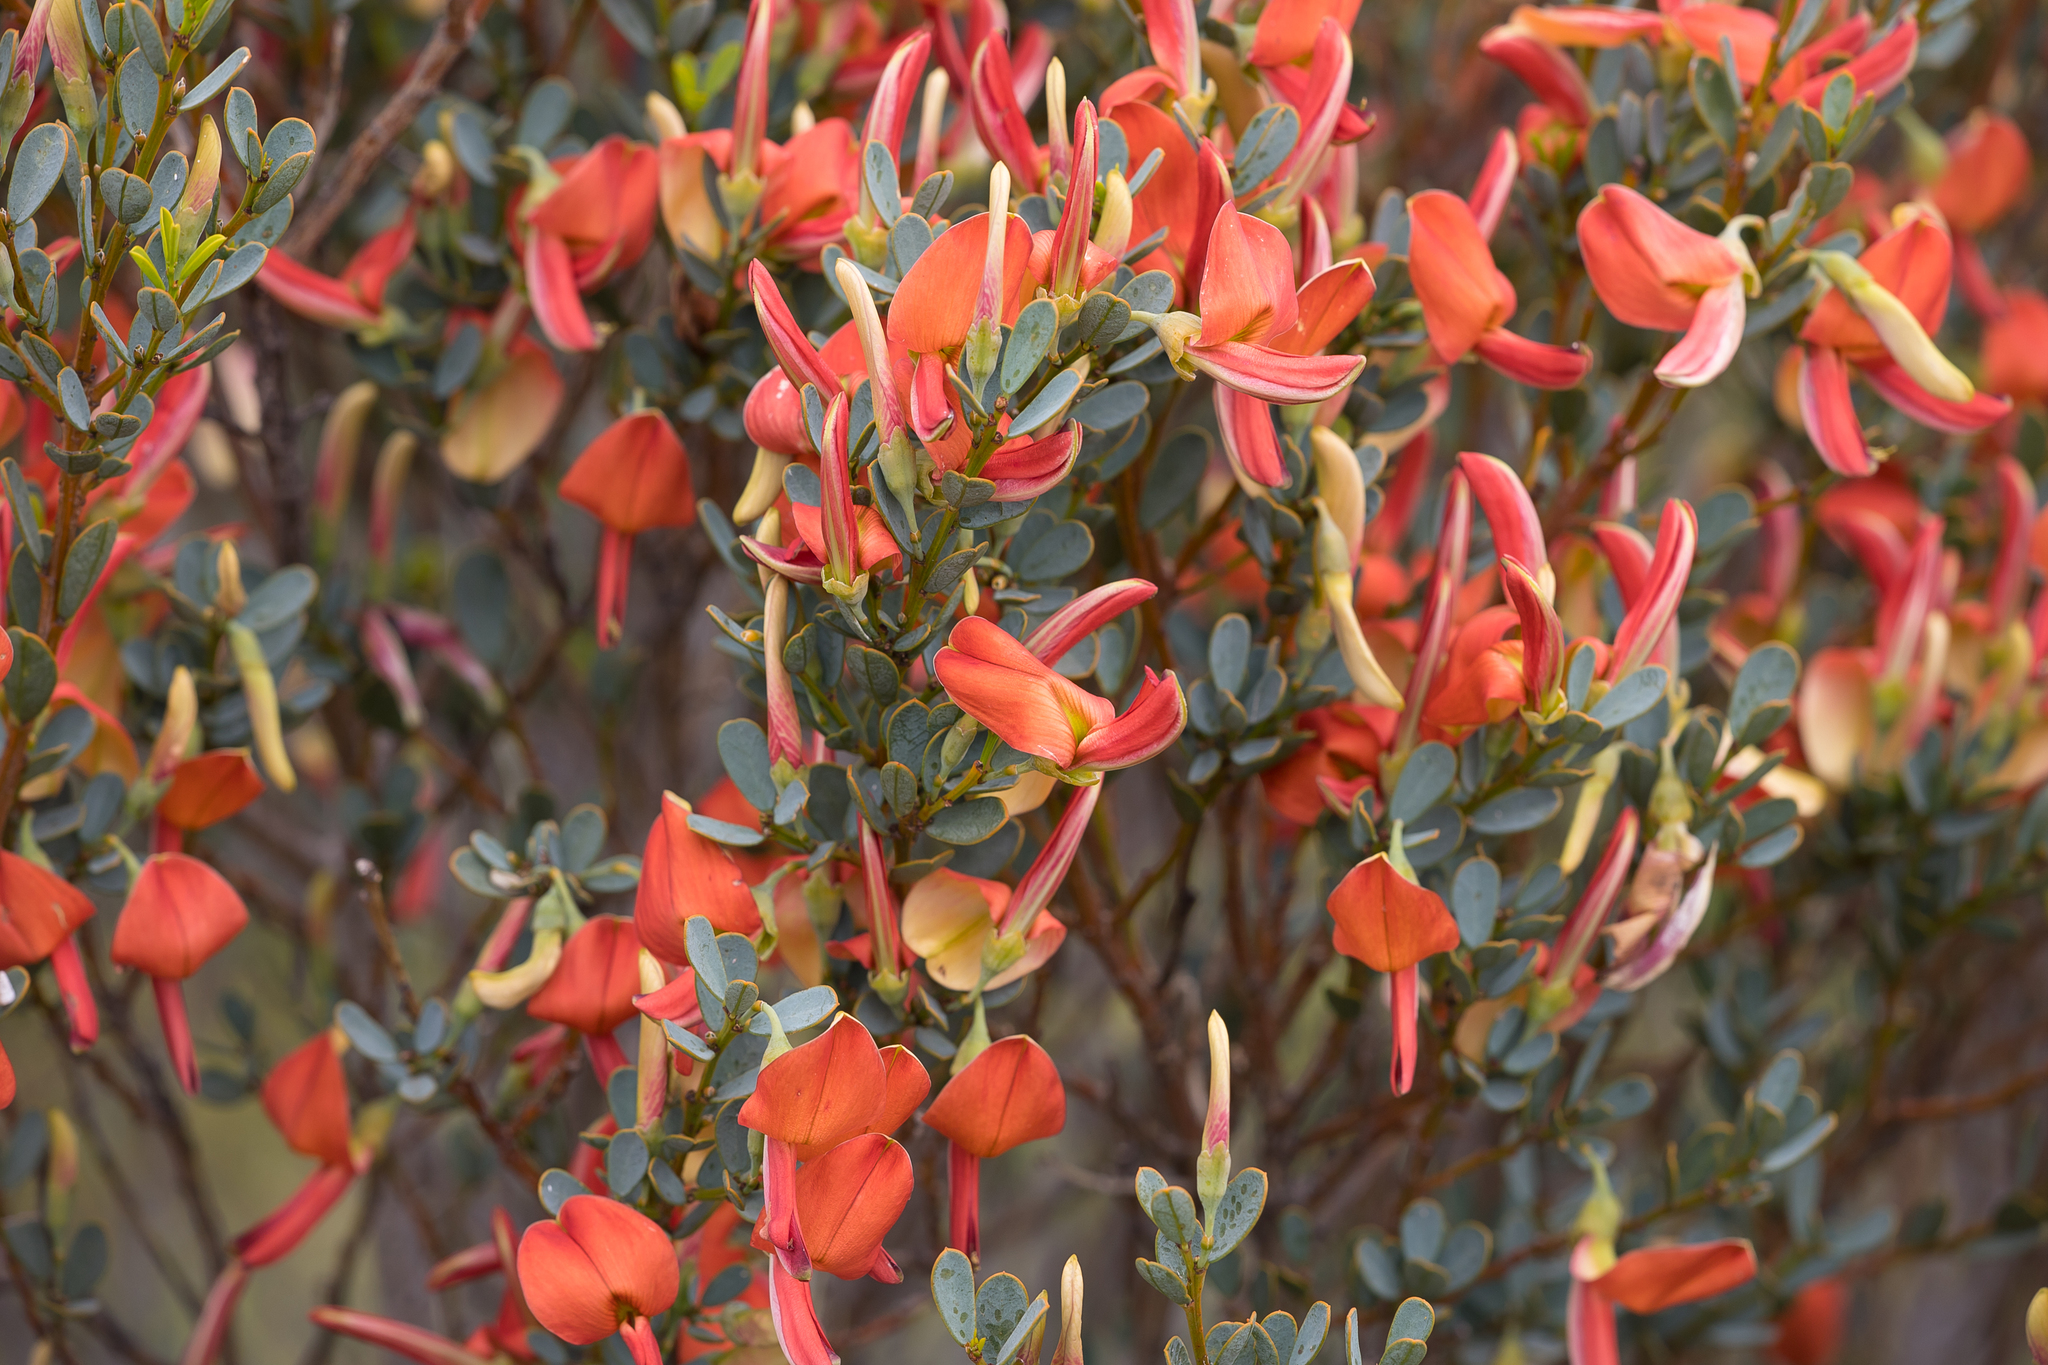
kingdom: Plantae
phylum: Tracheophyta
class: Magnoliopsida
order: Fabales
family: Fabaceae
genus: Templetonia
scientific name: Templetonia retusa
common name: Cockies'-tongue
